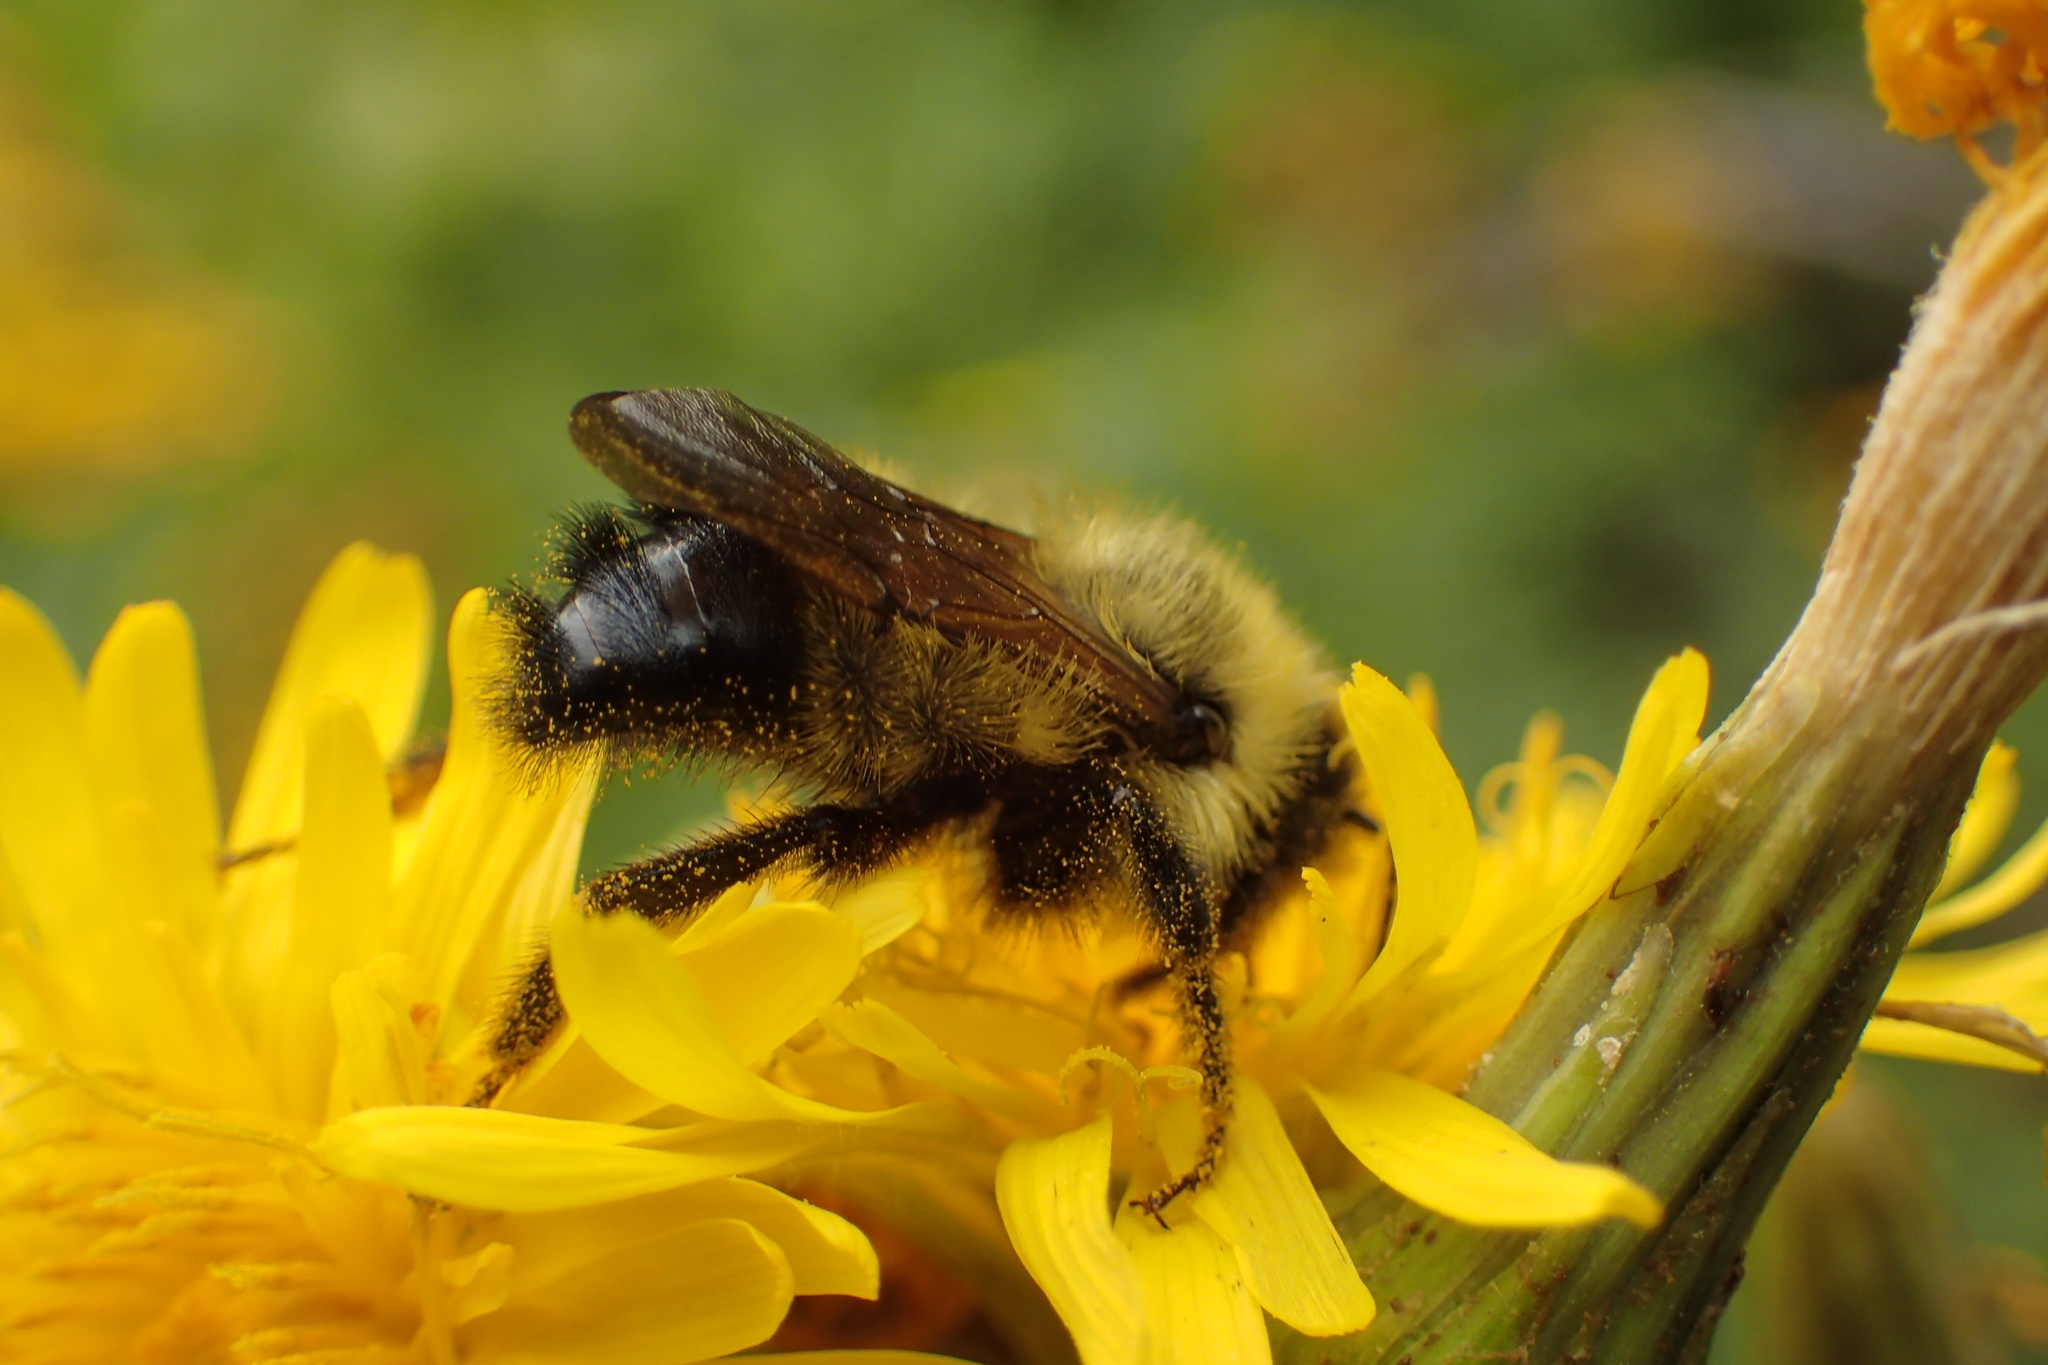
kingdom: Animalia
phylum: Arthropoda
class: Insecta
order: Hymenoptera
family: Apidae
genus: Bombus
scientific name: Bombus citrinus
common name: Lemon cuckoo bumble bee
